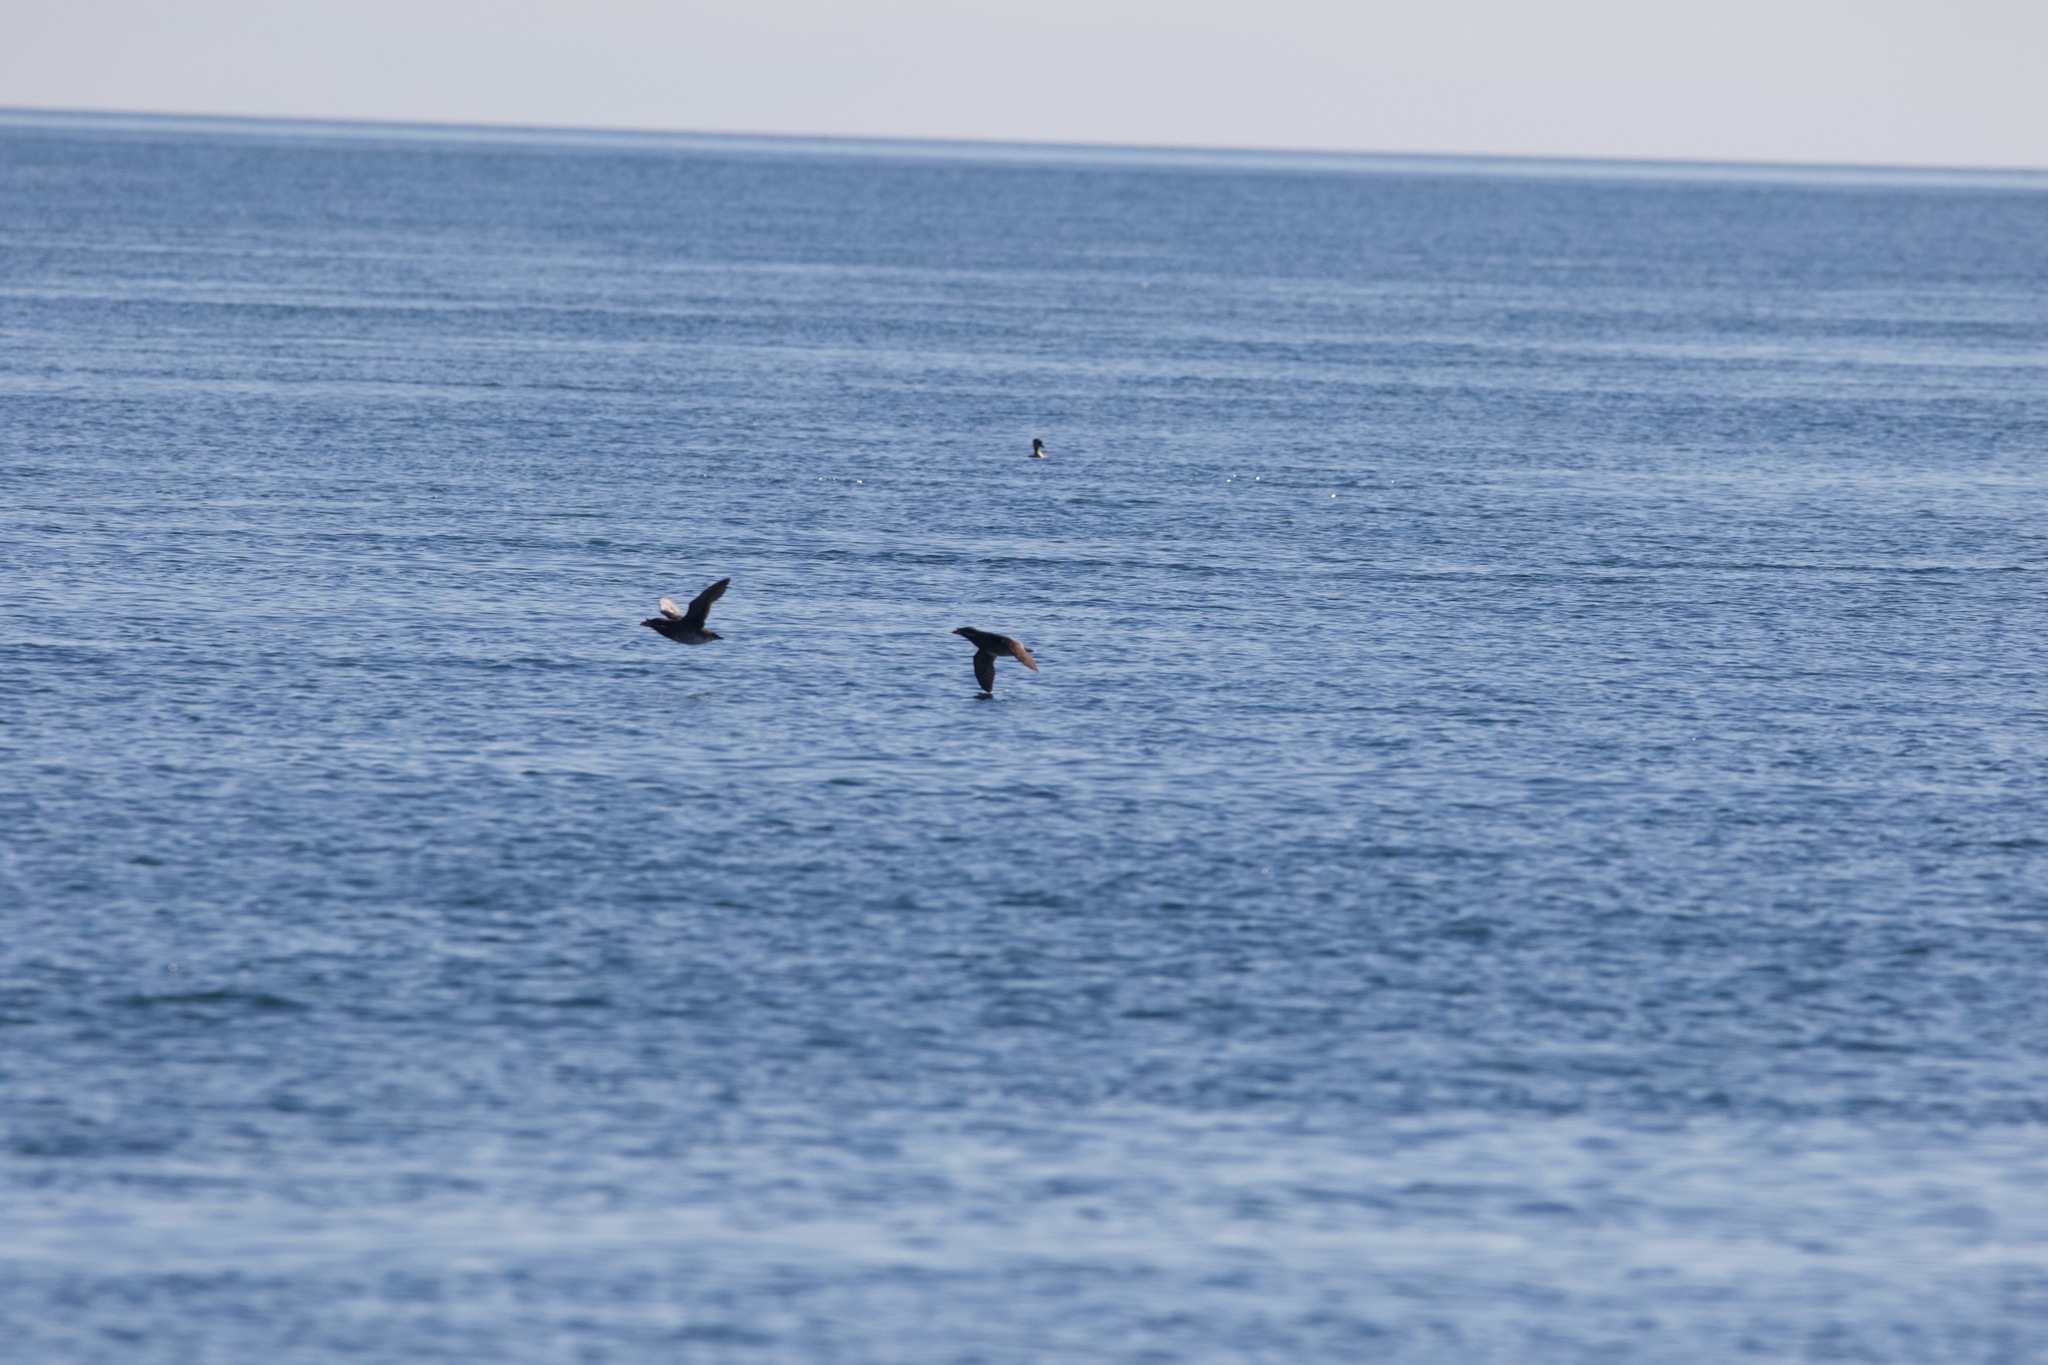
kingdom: Animalia
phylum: Chordata
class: Aves
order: Charadriiformes
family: Alcidae
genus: Cerorhinca
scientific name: Cerorhinca monocerata
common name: Rhinoceros auklet
